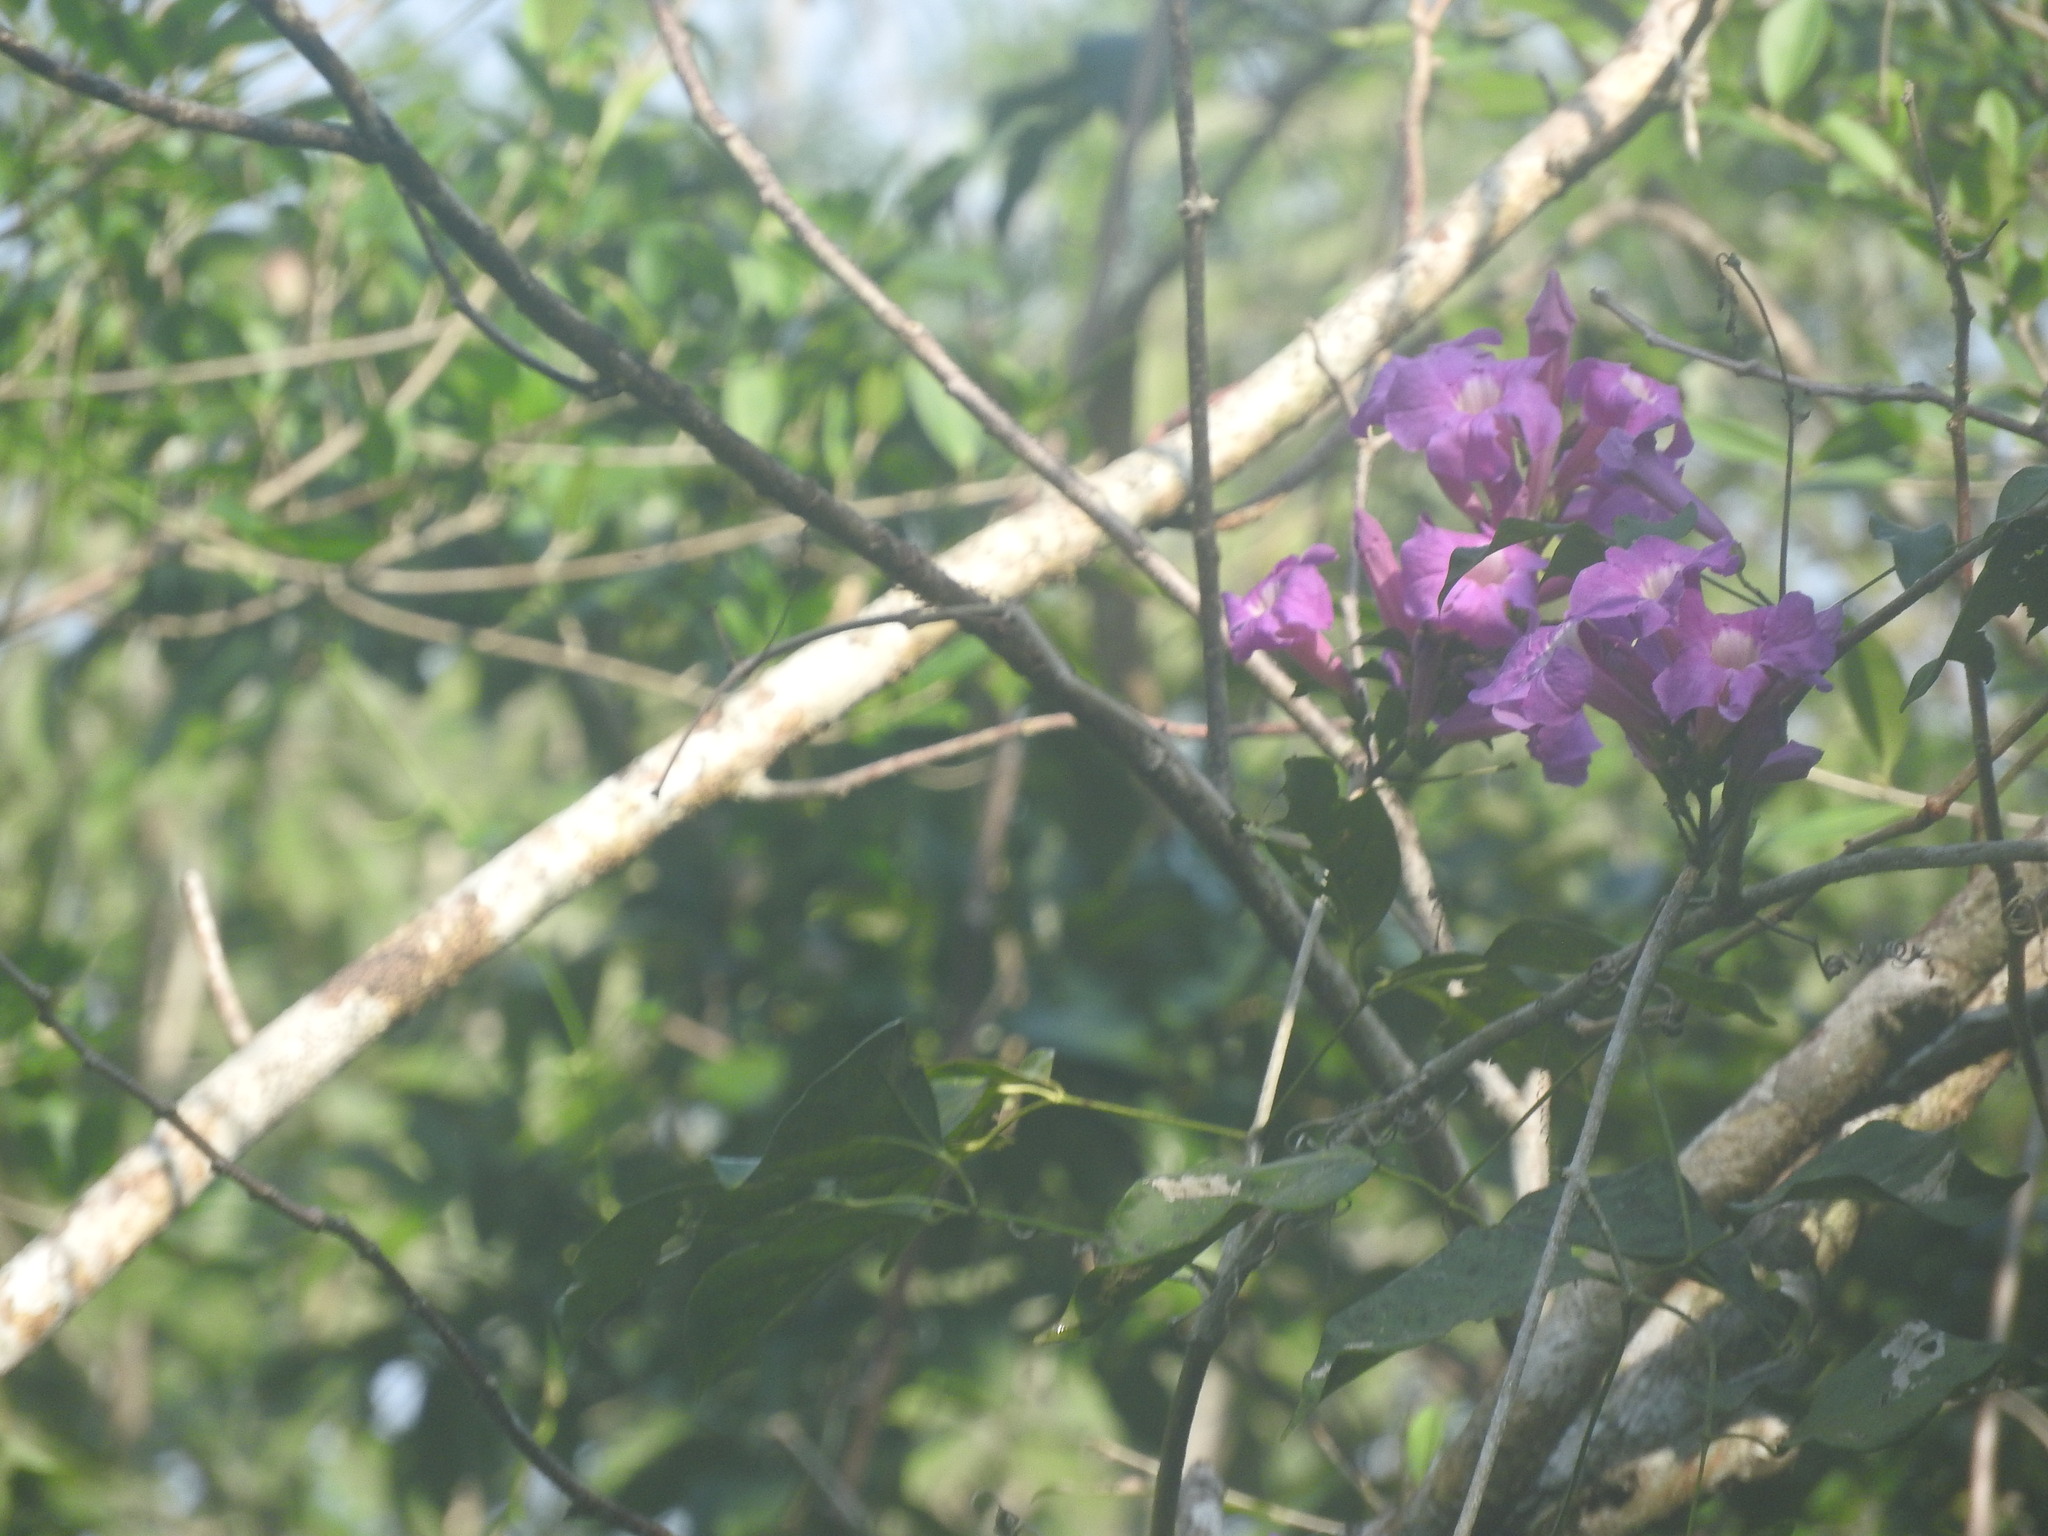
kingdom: Plantae
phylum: Tracheophyta
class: Magnoliopsida
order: Fabales
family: Fabaceae
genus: Lonchocarpus
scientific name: Lonchocarpus longistylus
